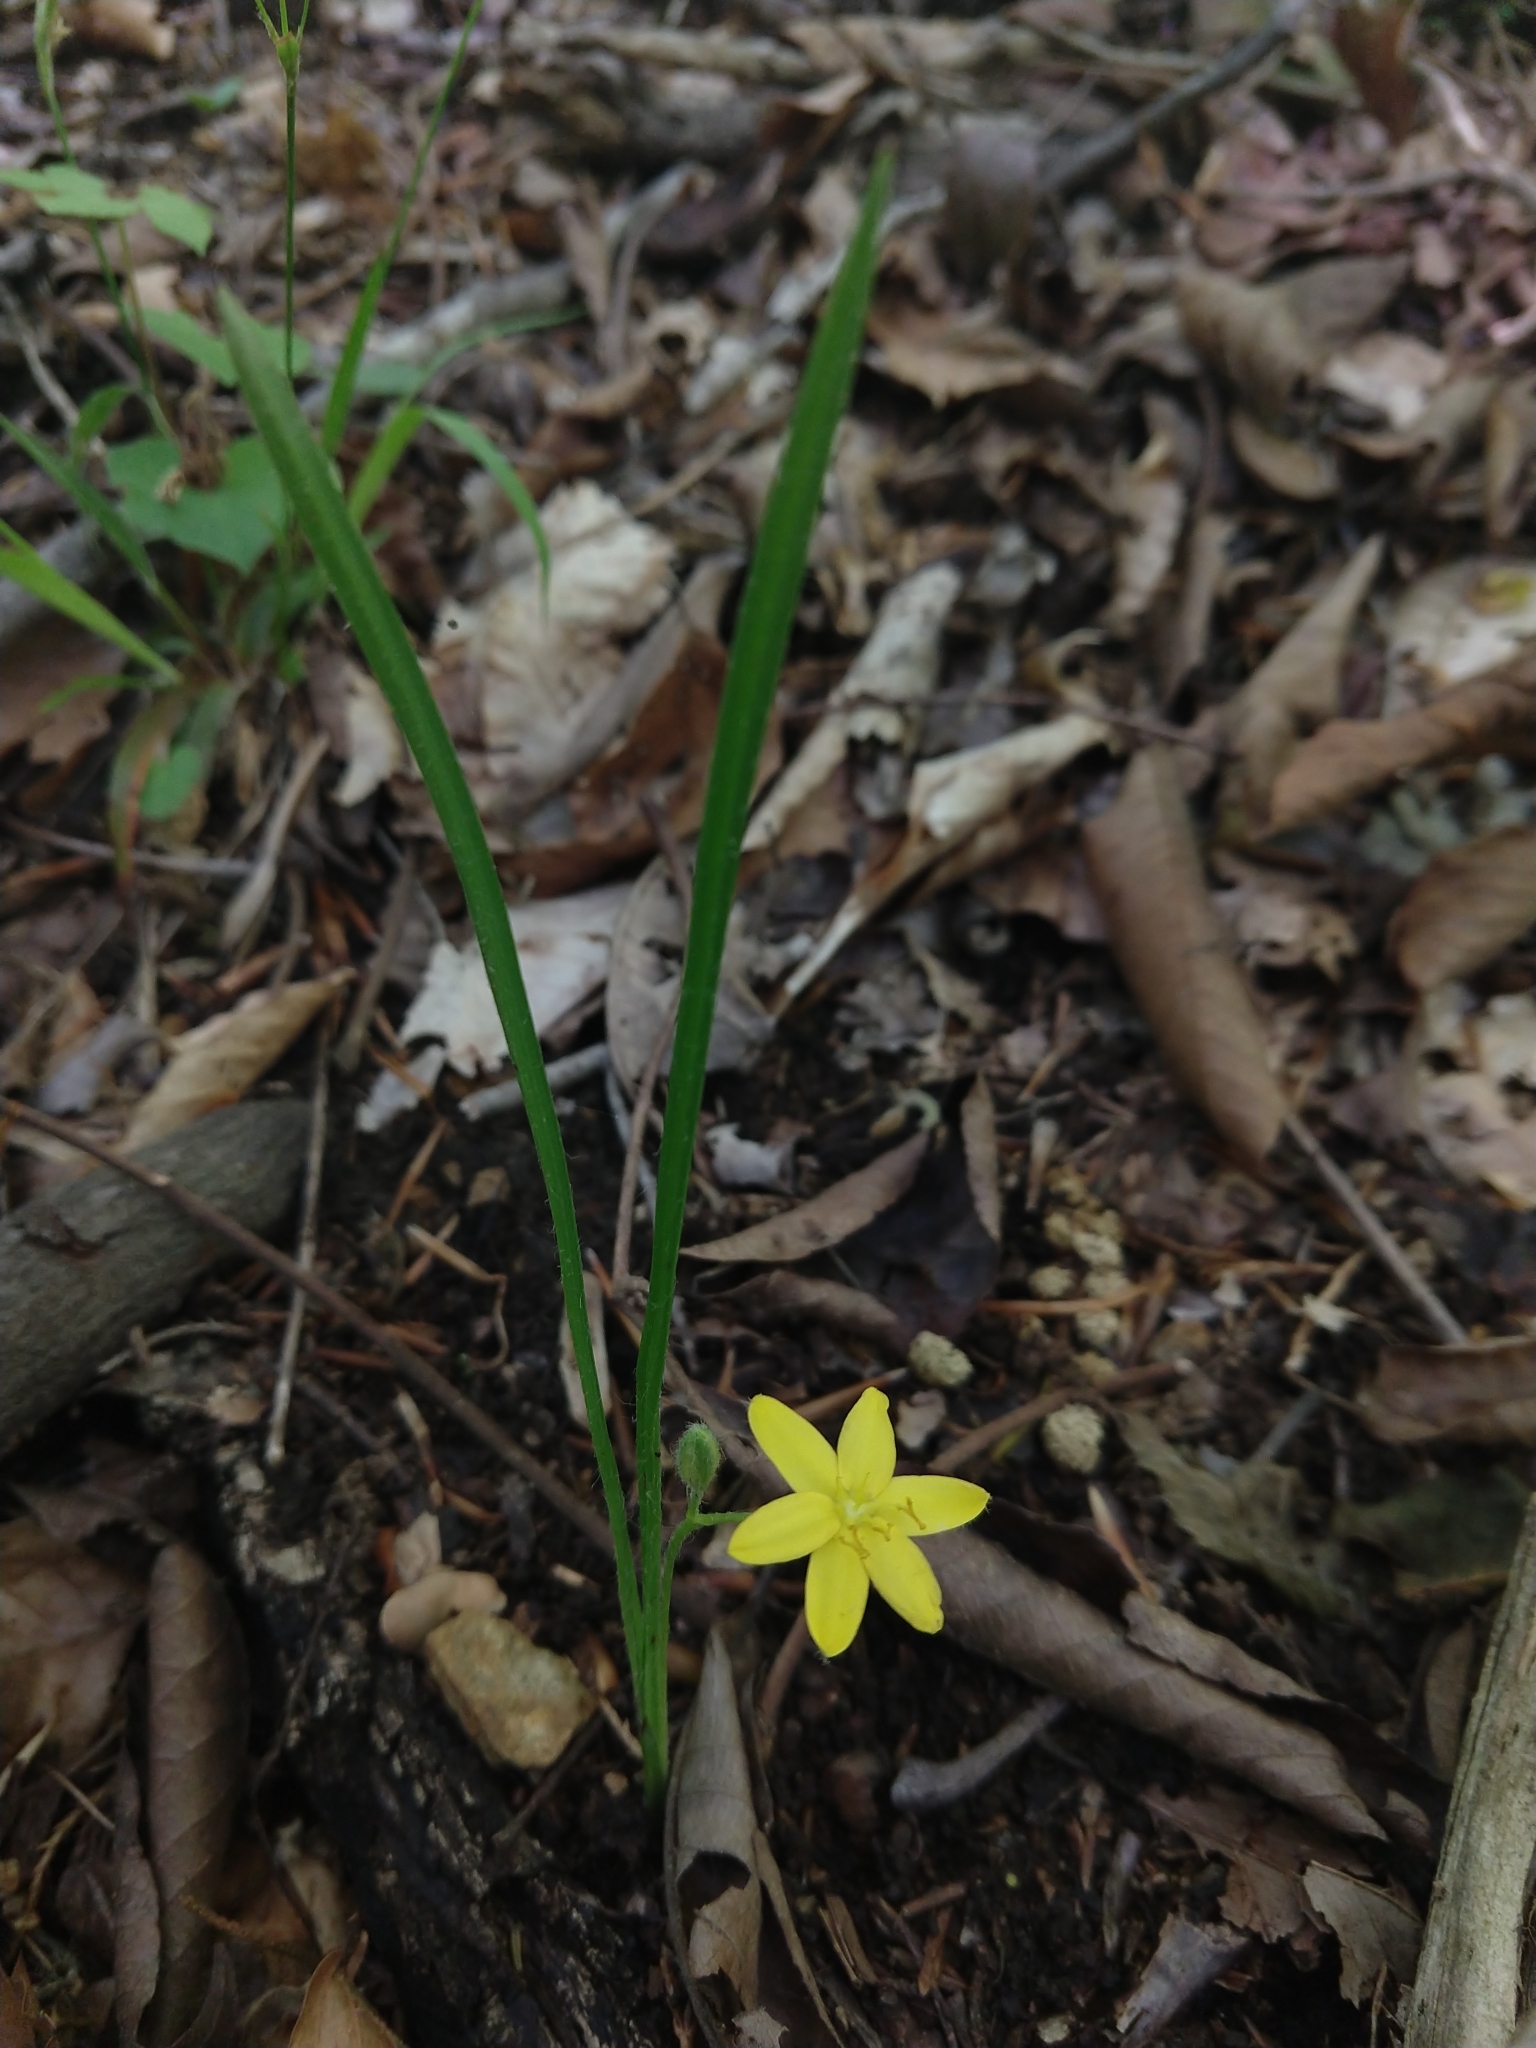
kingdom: Plantae
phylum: Tracheophyta
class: Liliopsida
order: Asparagales
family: Hypoxidaceae
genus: Hypoxis
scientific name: Hypoxis hirsuta
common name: Common goldstar
